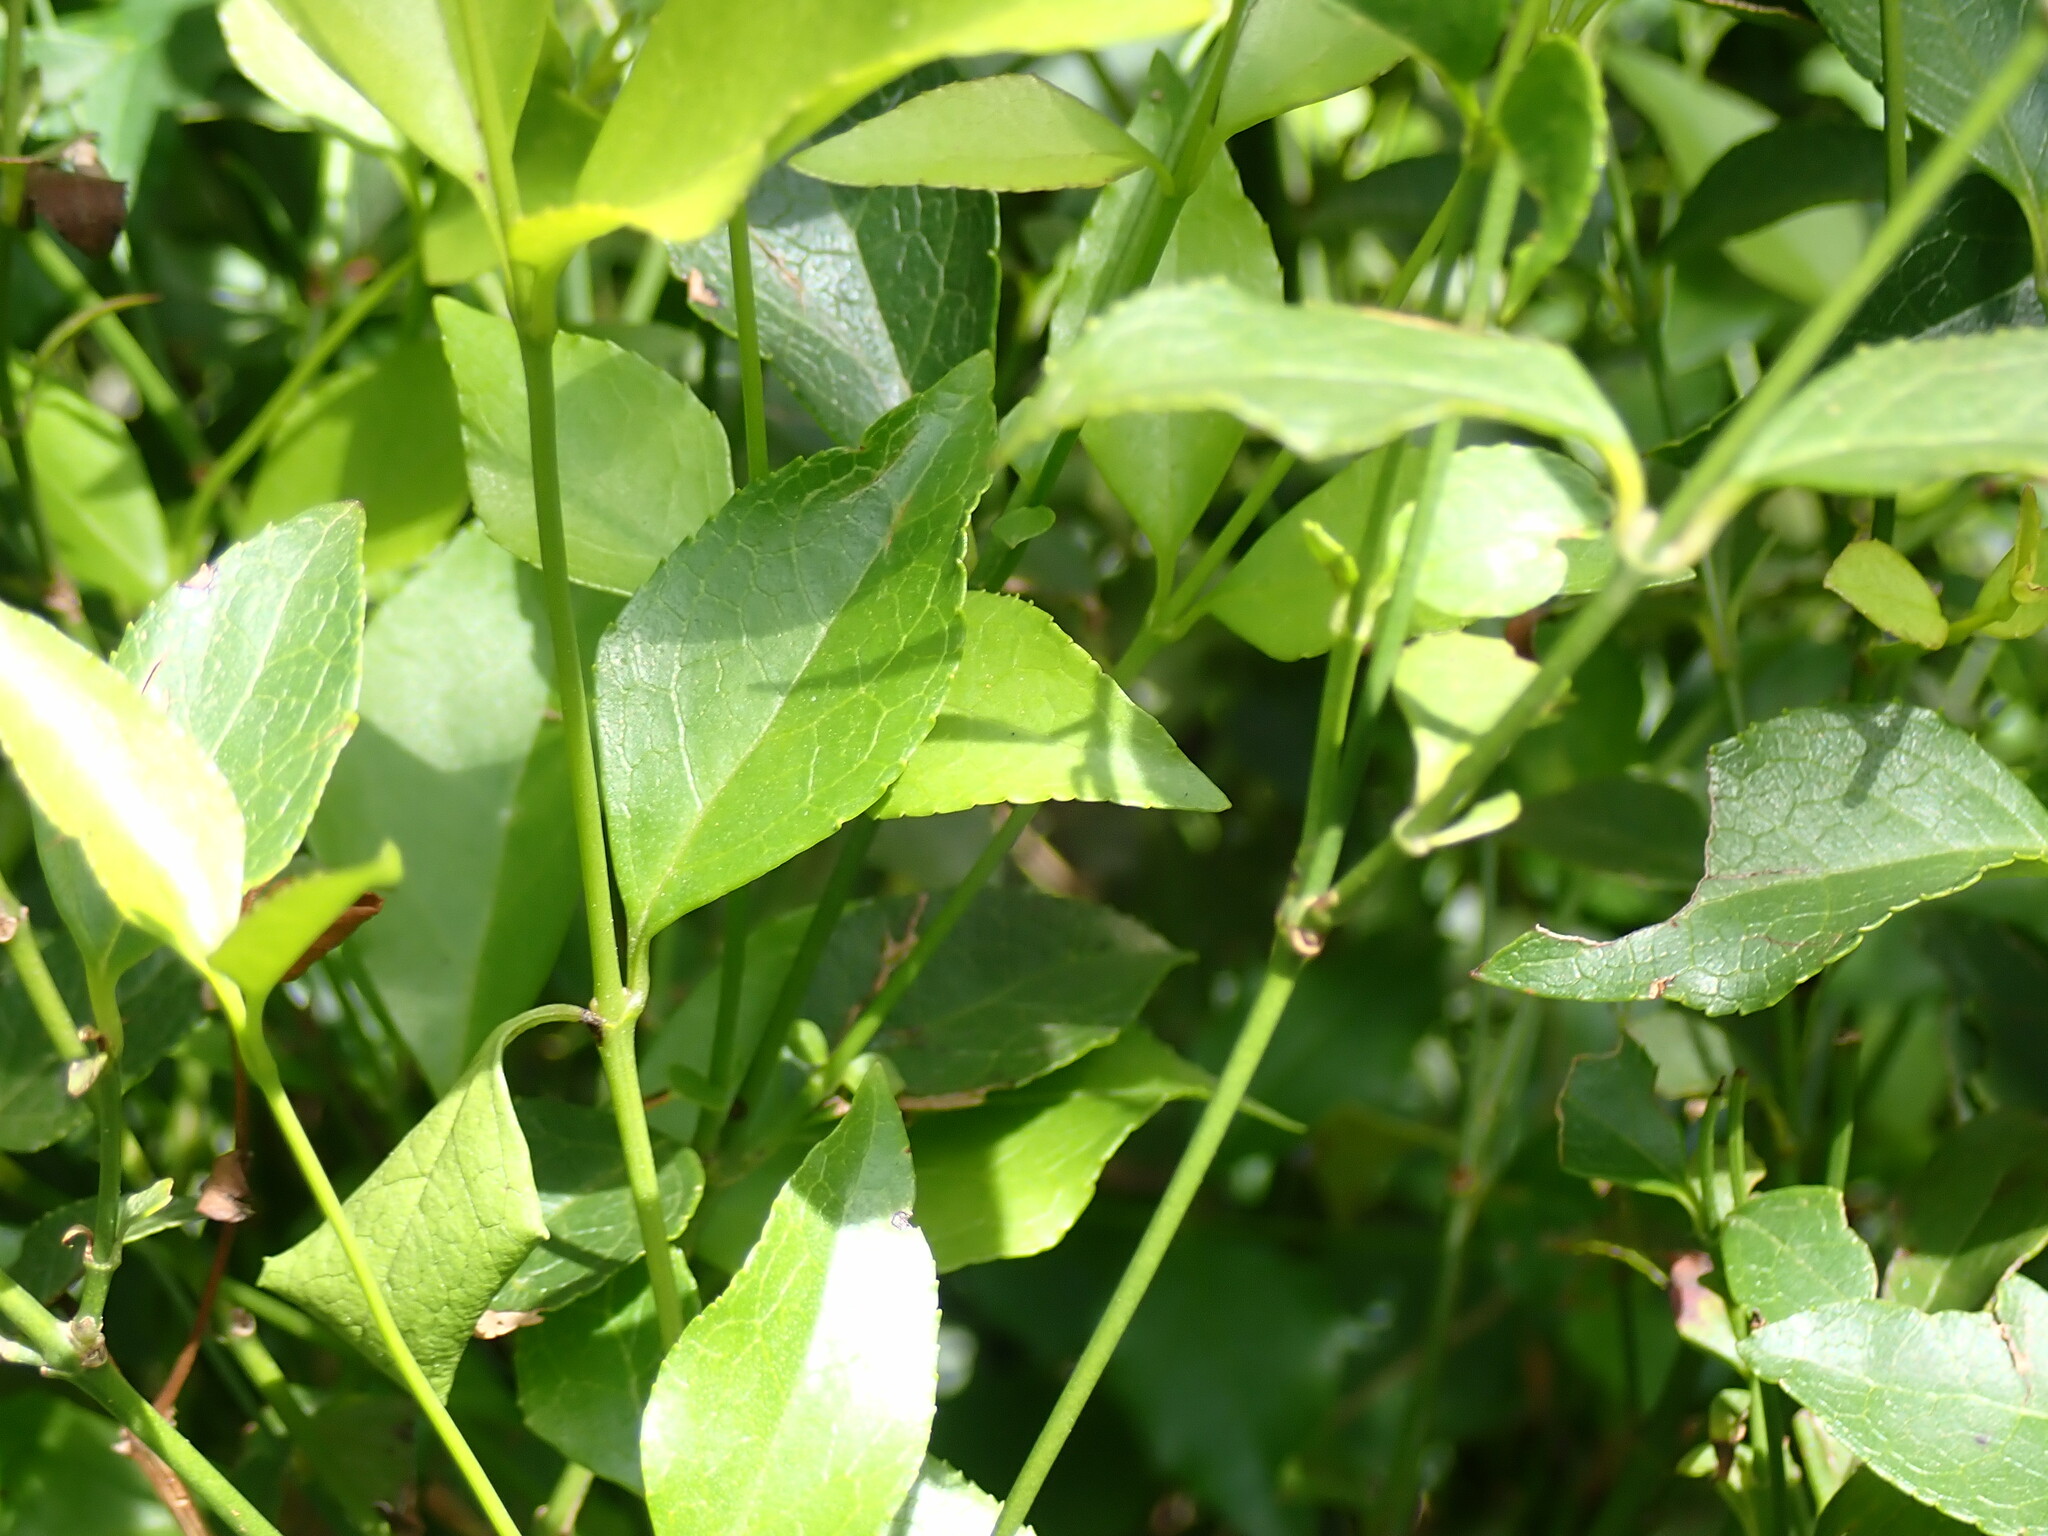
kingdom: Plantae
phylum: Tracheophyta
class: Magnoliopsida
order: Lamiales
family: Stilbaceae
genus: Halleria
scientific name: Halleria lucida
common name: Tree fuschia
